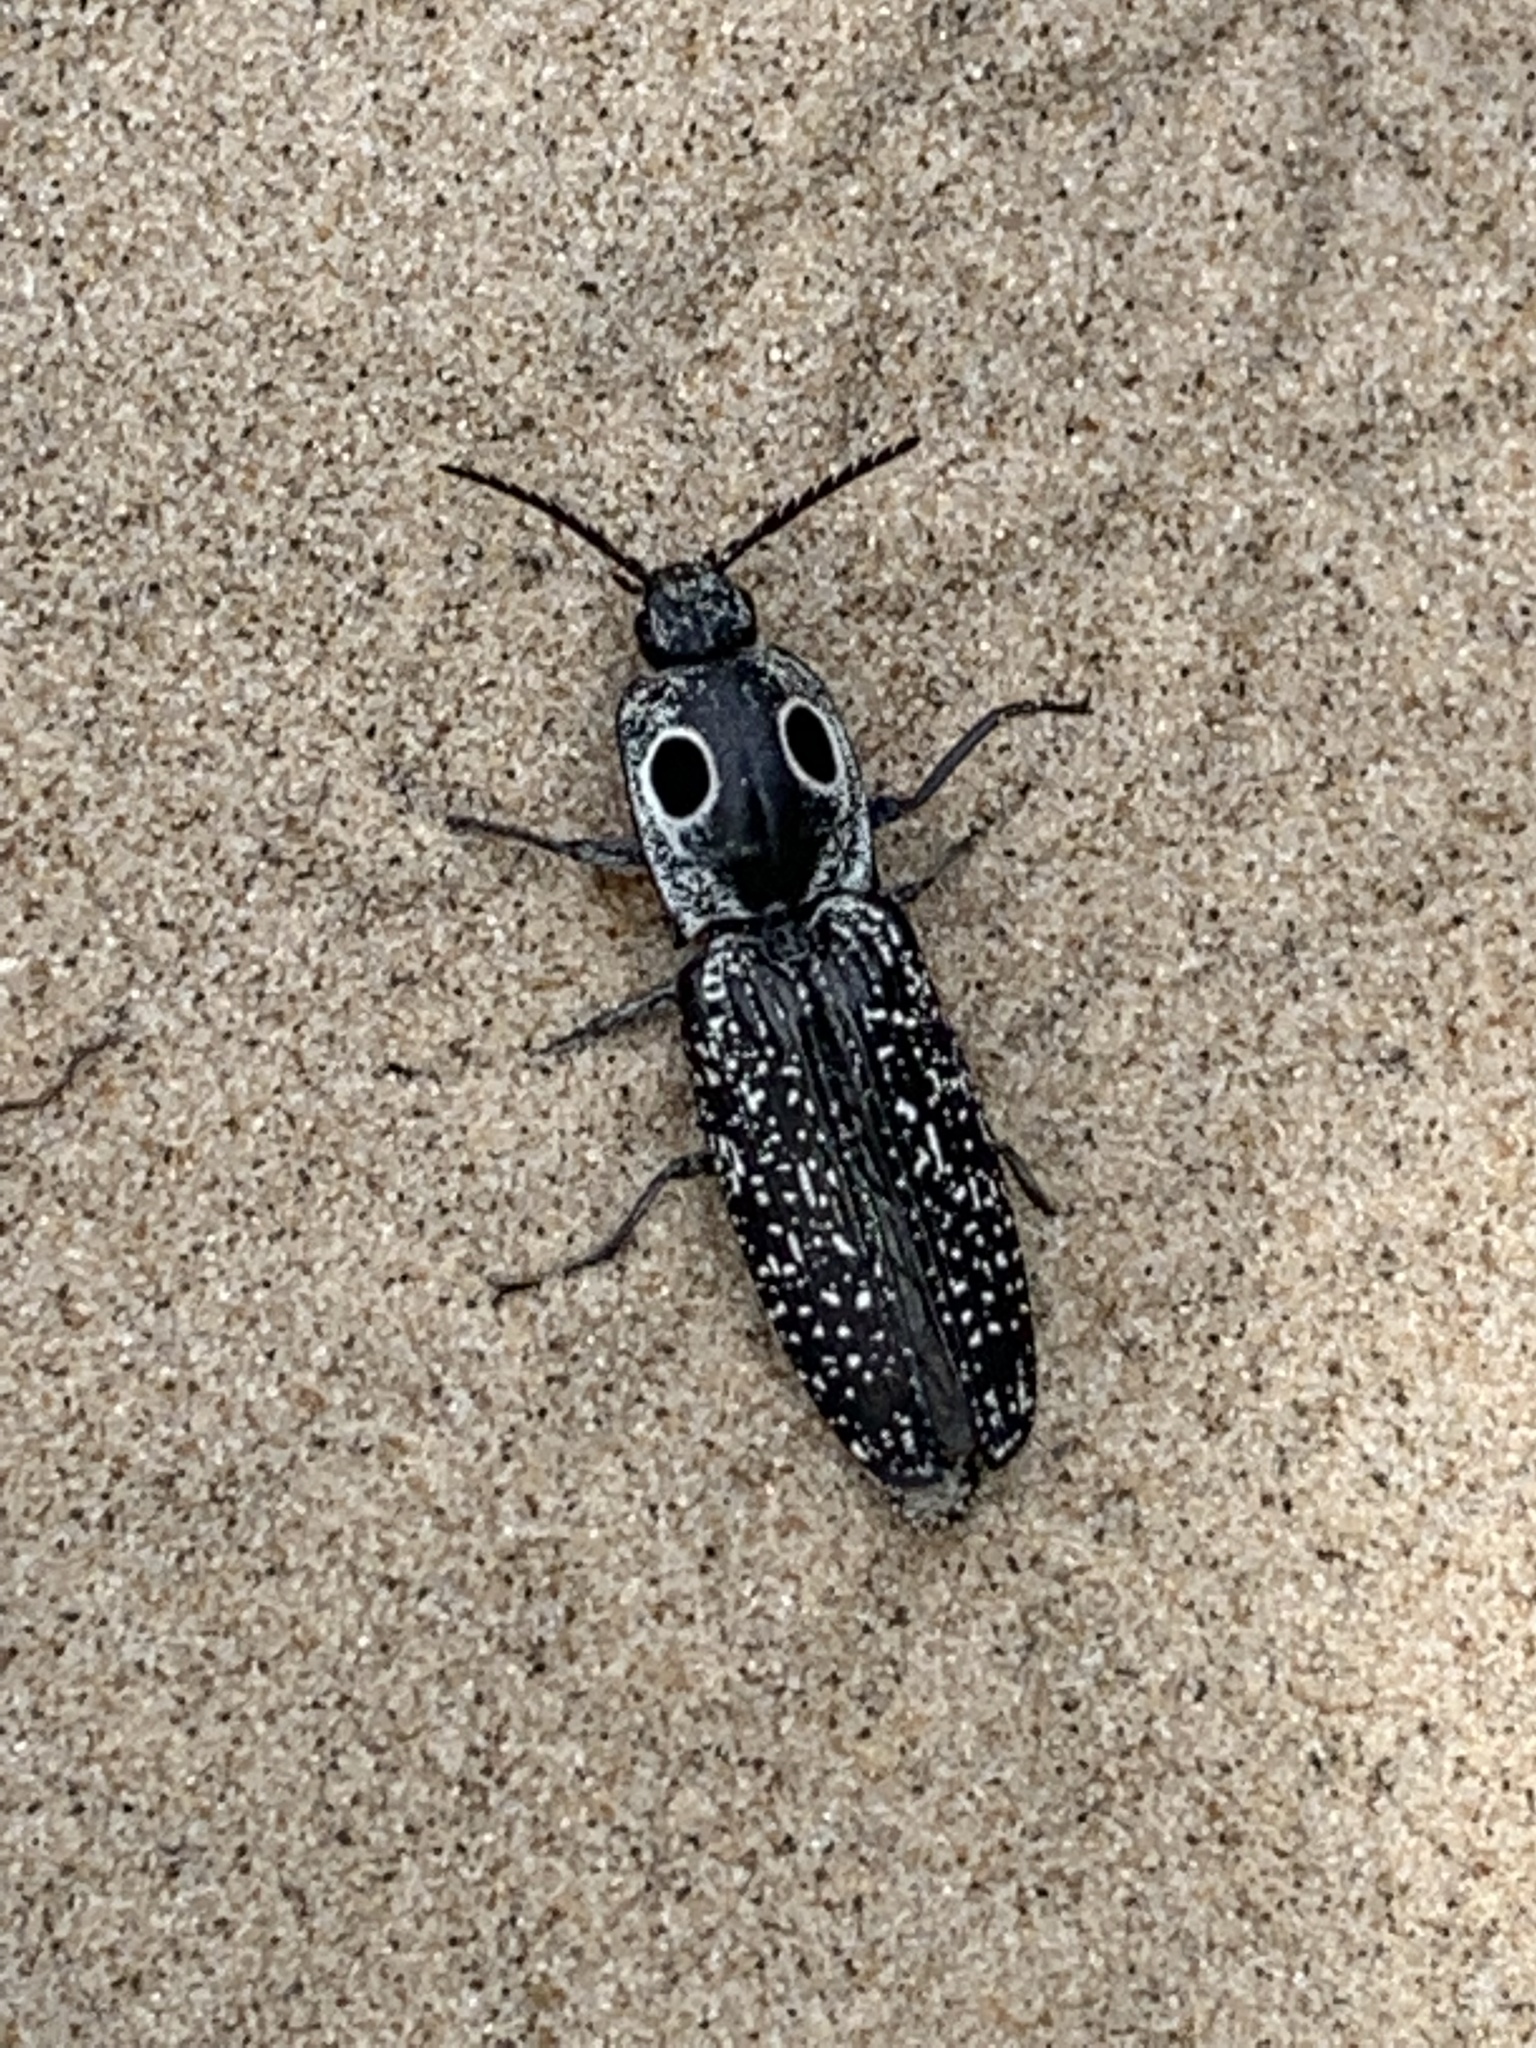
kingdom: Animalia
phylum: Arthropoda
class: Insecta
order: Coleoptera
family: Elateridae
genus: Alaus
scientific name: Alaus oculatus
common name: Eastern eyed click beetle
